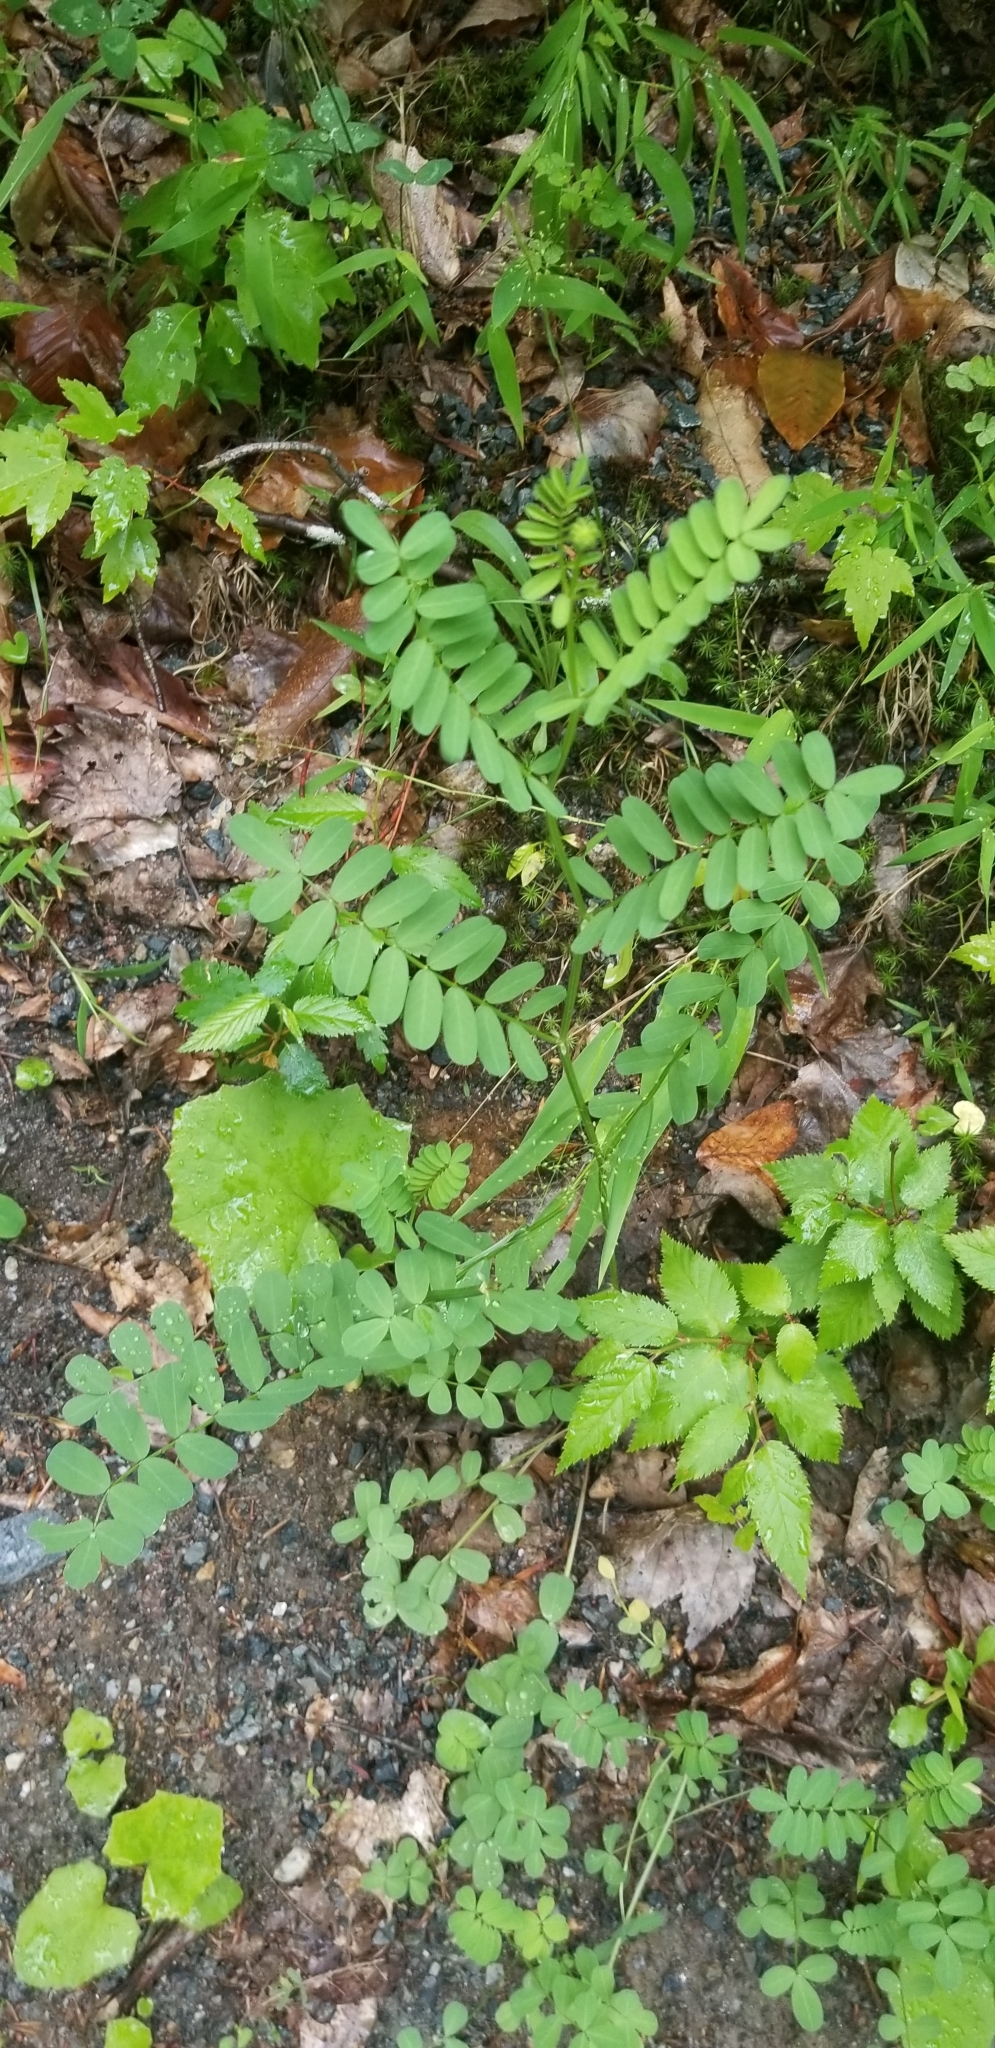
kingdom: Plantae
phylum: Tracheophyta
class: Magnoliopsida
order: Fabales
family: Fabaceae
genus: Coronilla
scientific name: Coronilla varia
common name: Crownvetch
